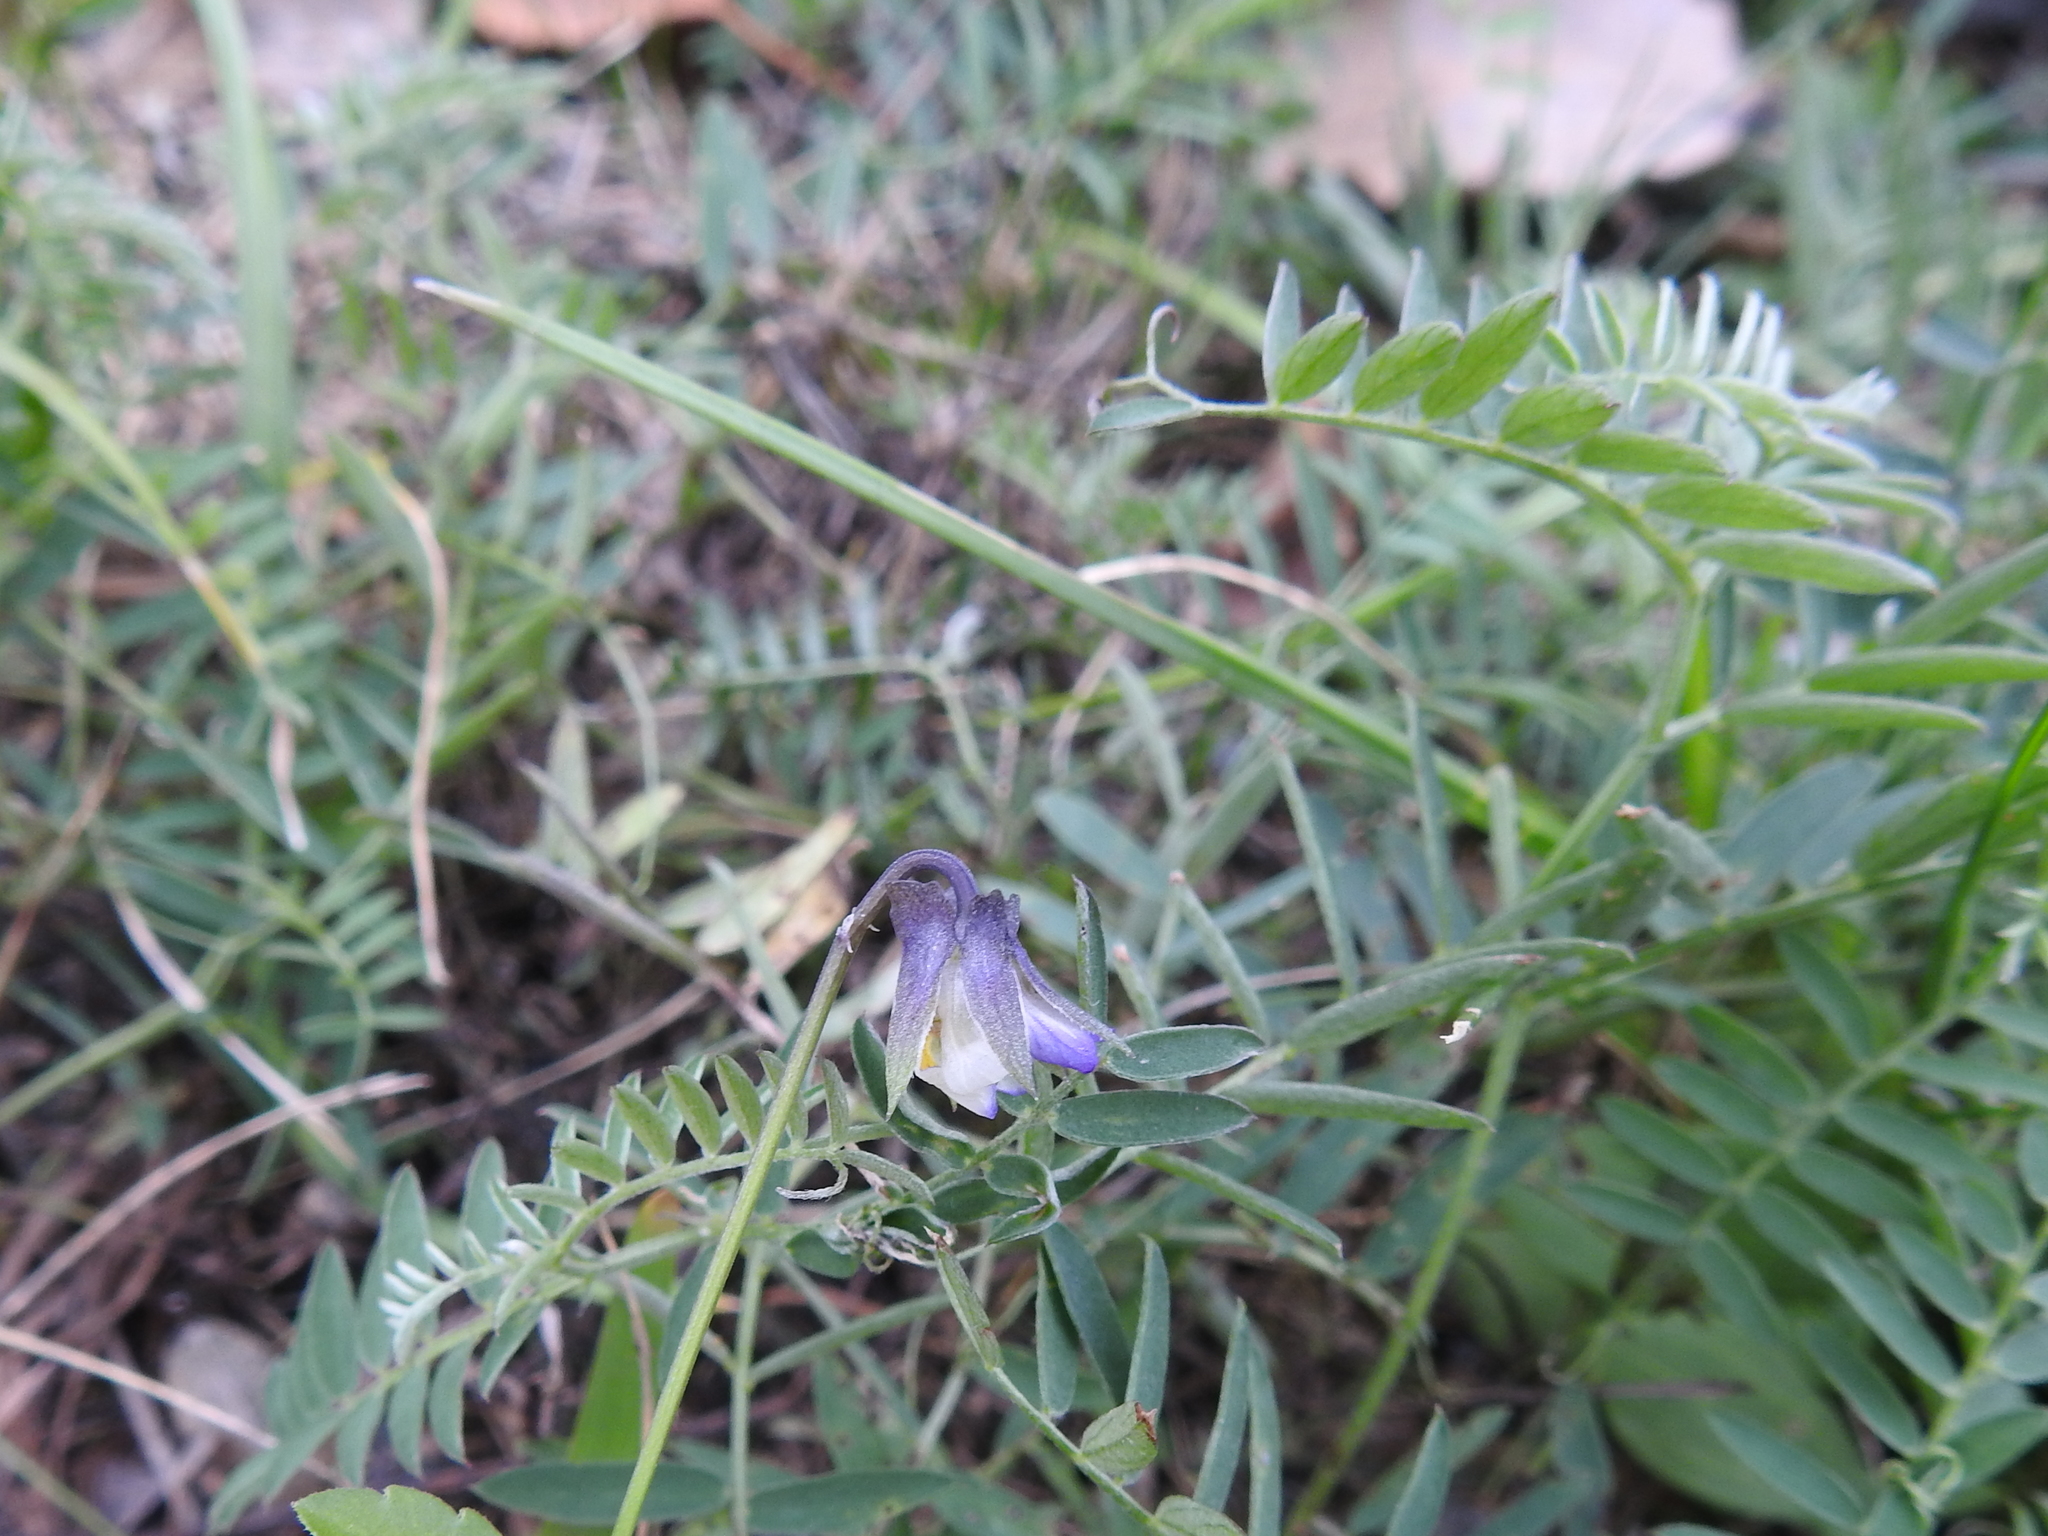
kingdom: Plantae
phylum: Tracheophyta
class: Magnoliopsida
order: Fabales
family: Fabaceae
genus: Vicia
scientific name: Vicia cracca
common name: Bird vetch
